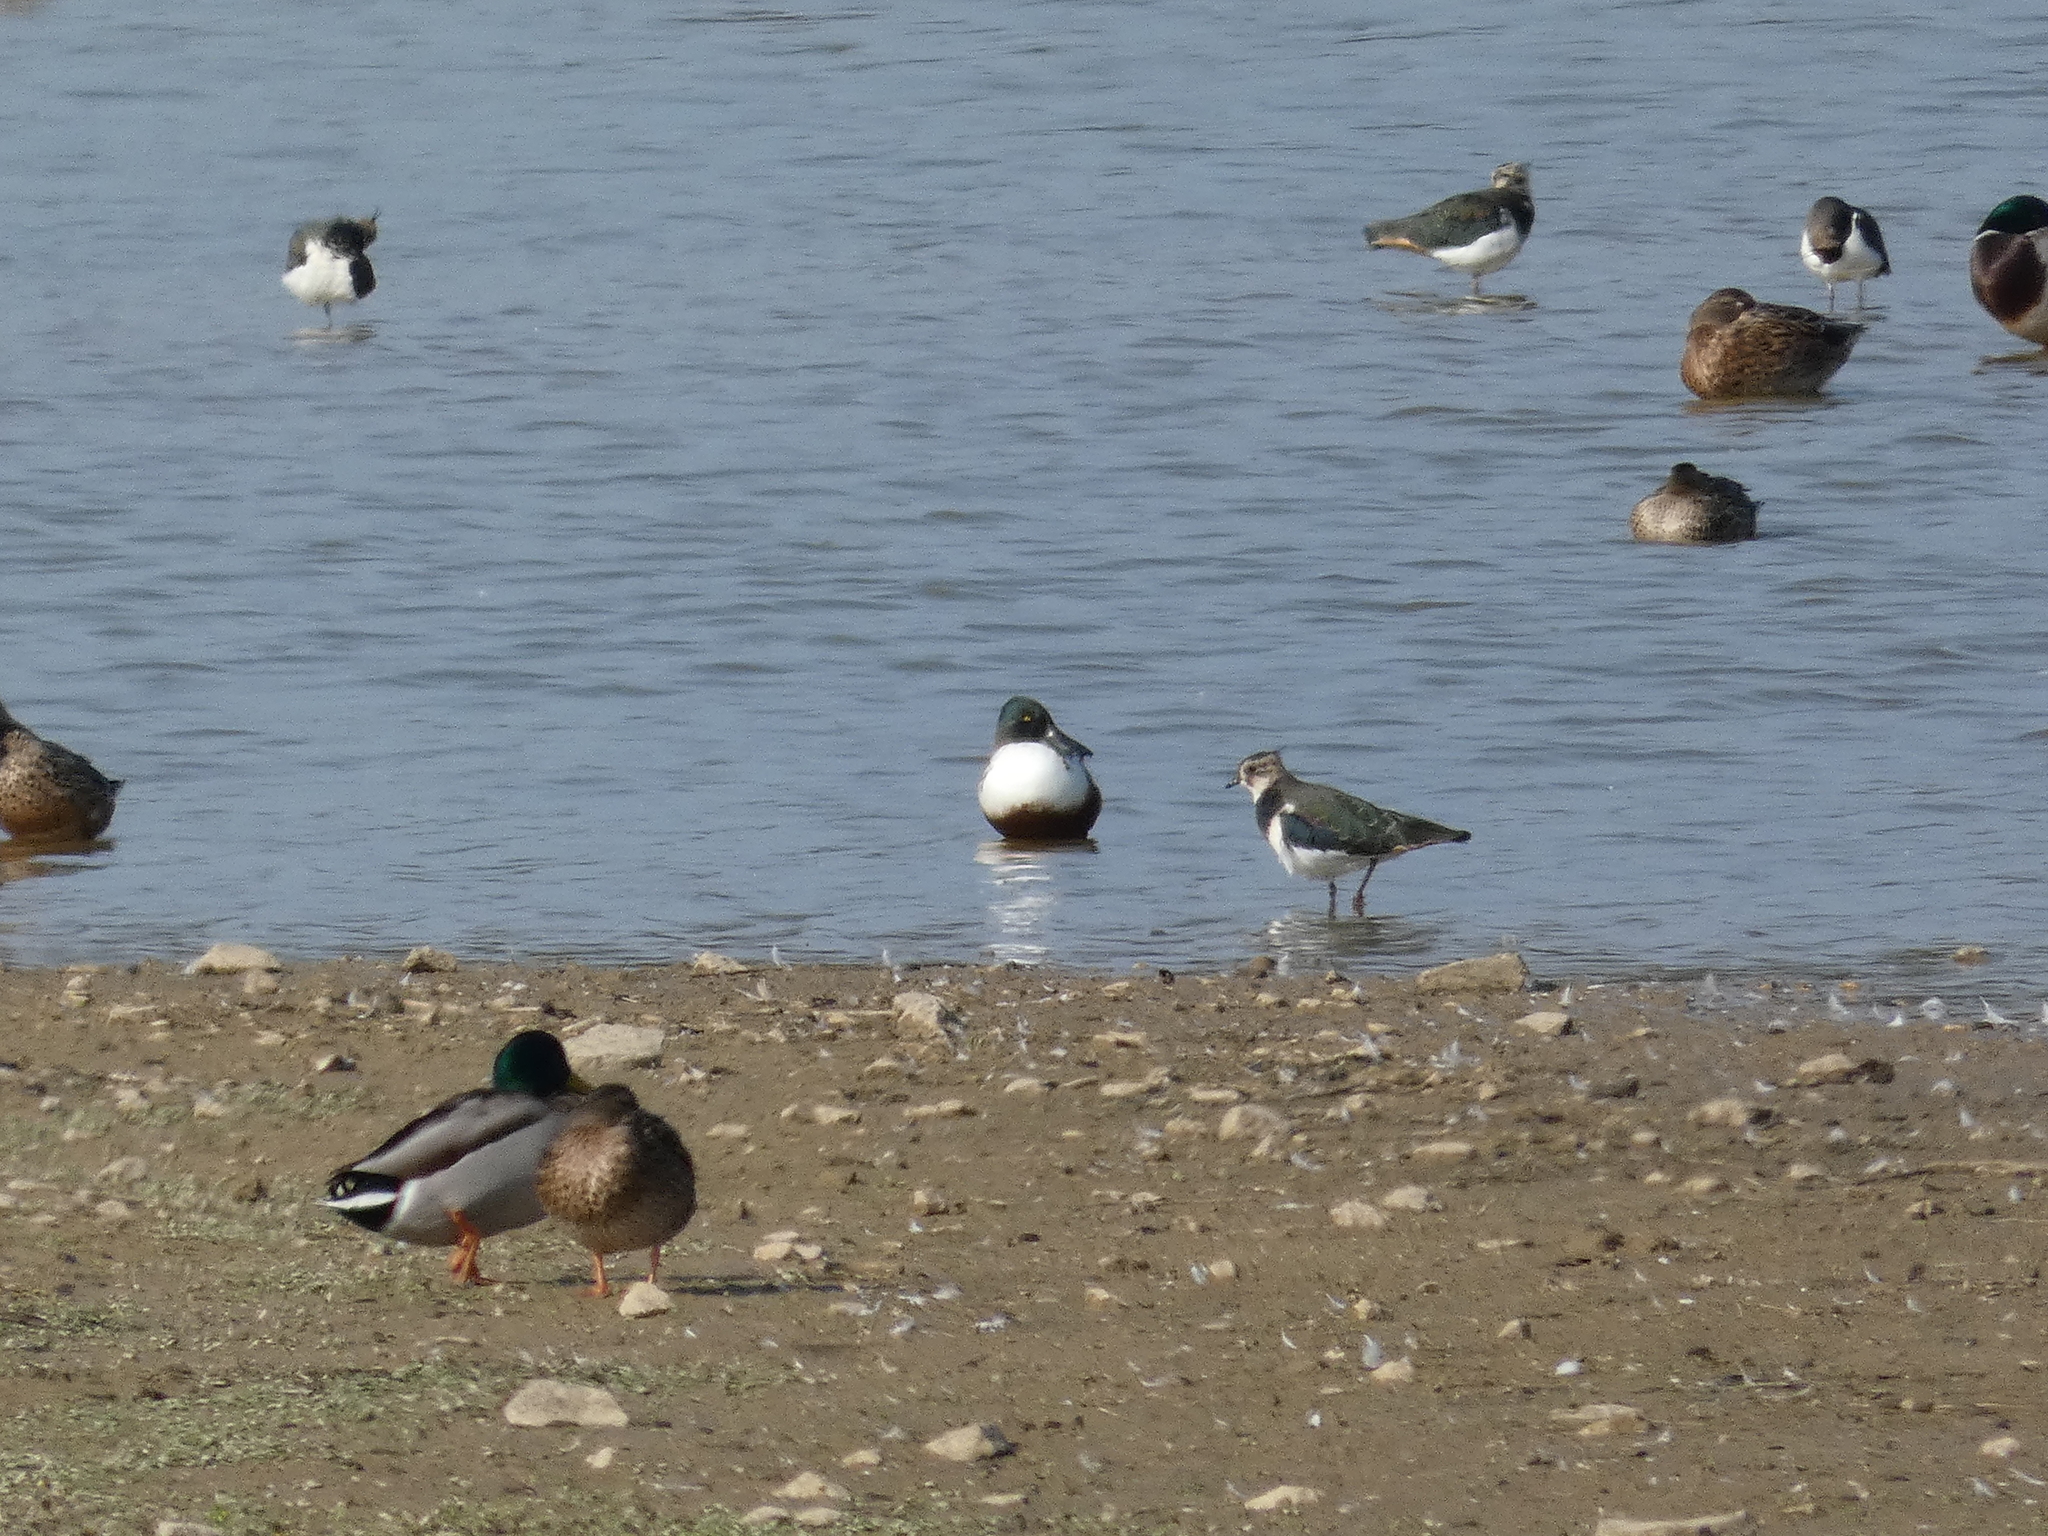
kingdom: Animalia
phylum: Chordata
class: Aves
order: Anseriformes
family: Anatidae
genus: Spatula
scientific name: Spatula clypeata
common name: Northern shoveler
